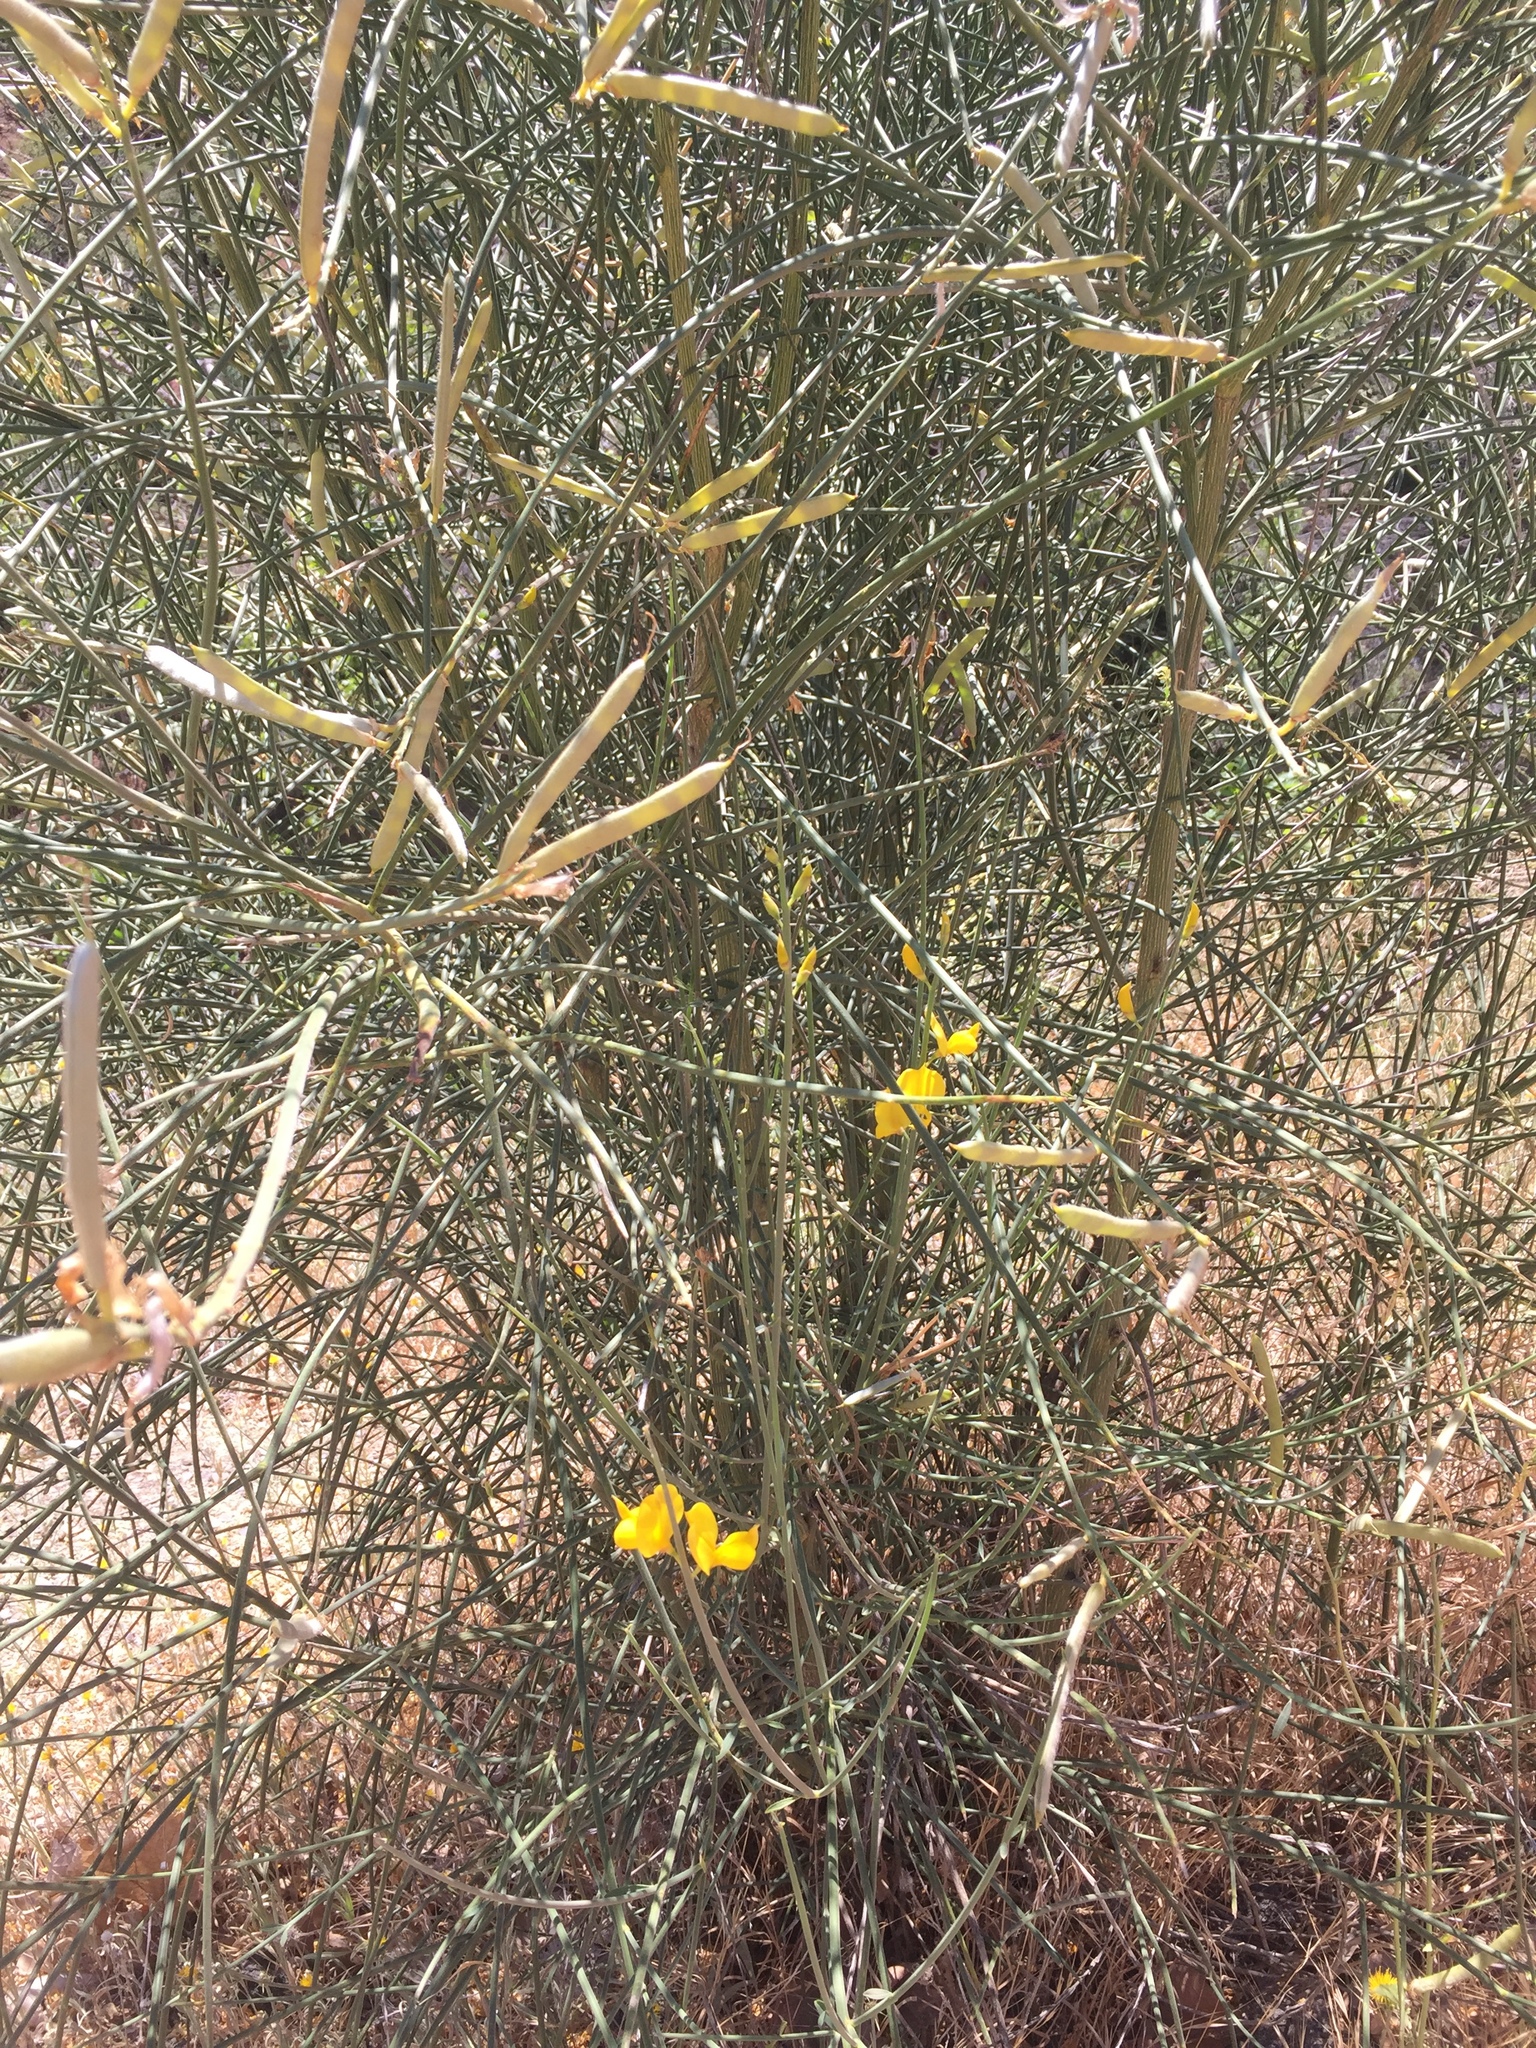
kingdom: Plantae
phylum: Tracheophyta
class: Magnoliopsida
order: Fabales
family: Fabaceae
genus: Spartium
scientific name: Spartium junceum
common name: Spanish broom
